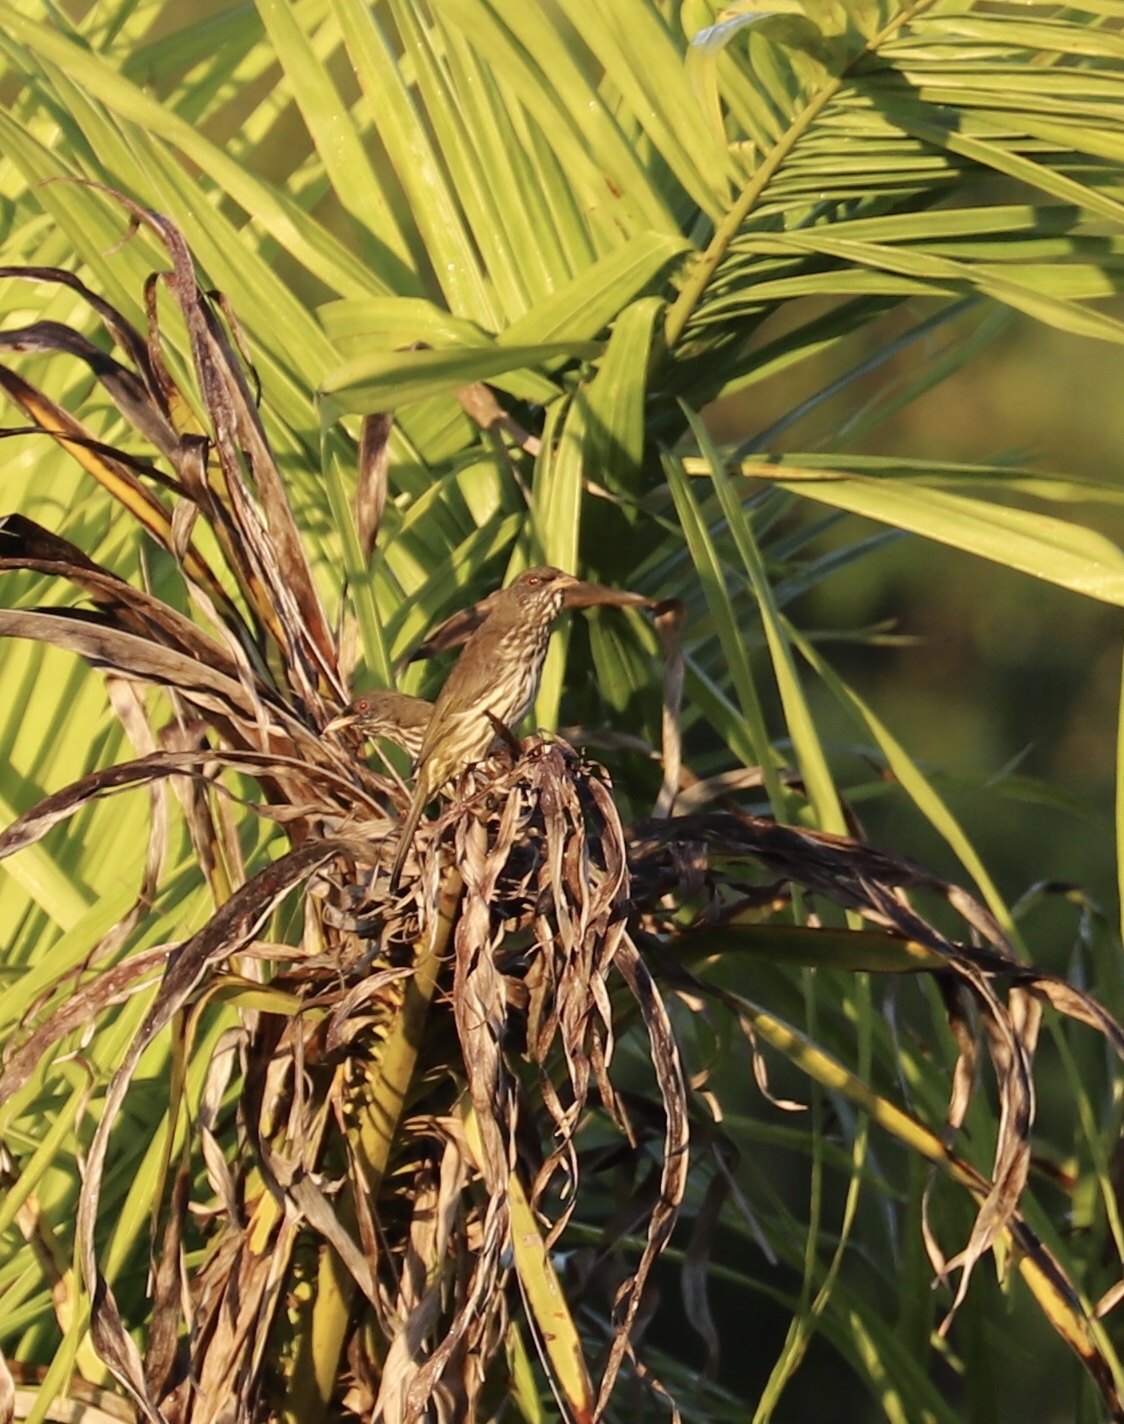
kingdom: Animalia
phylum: Chordata
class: Aves
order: Passeriformes
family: Dulidae
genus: Dulus
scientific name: Dulus dominicus
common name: Palmchat
